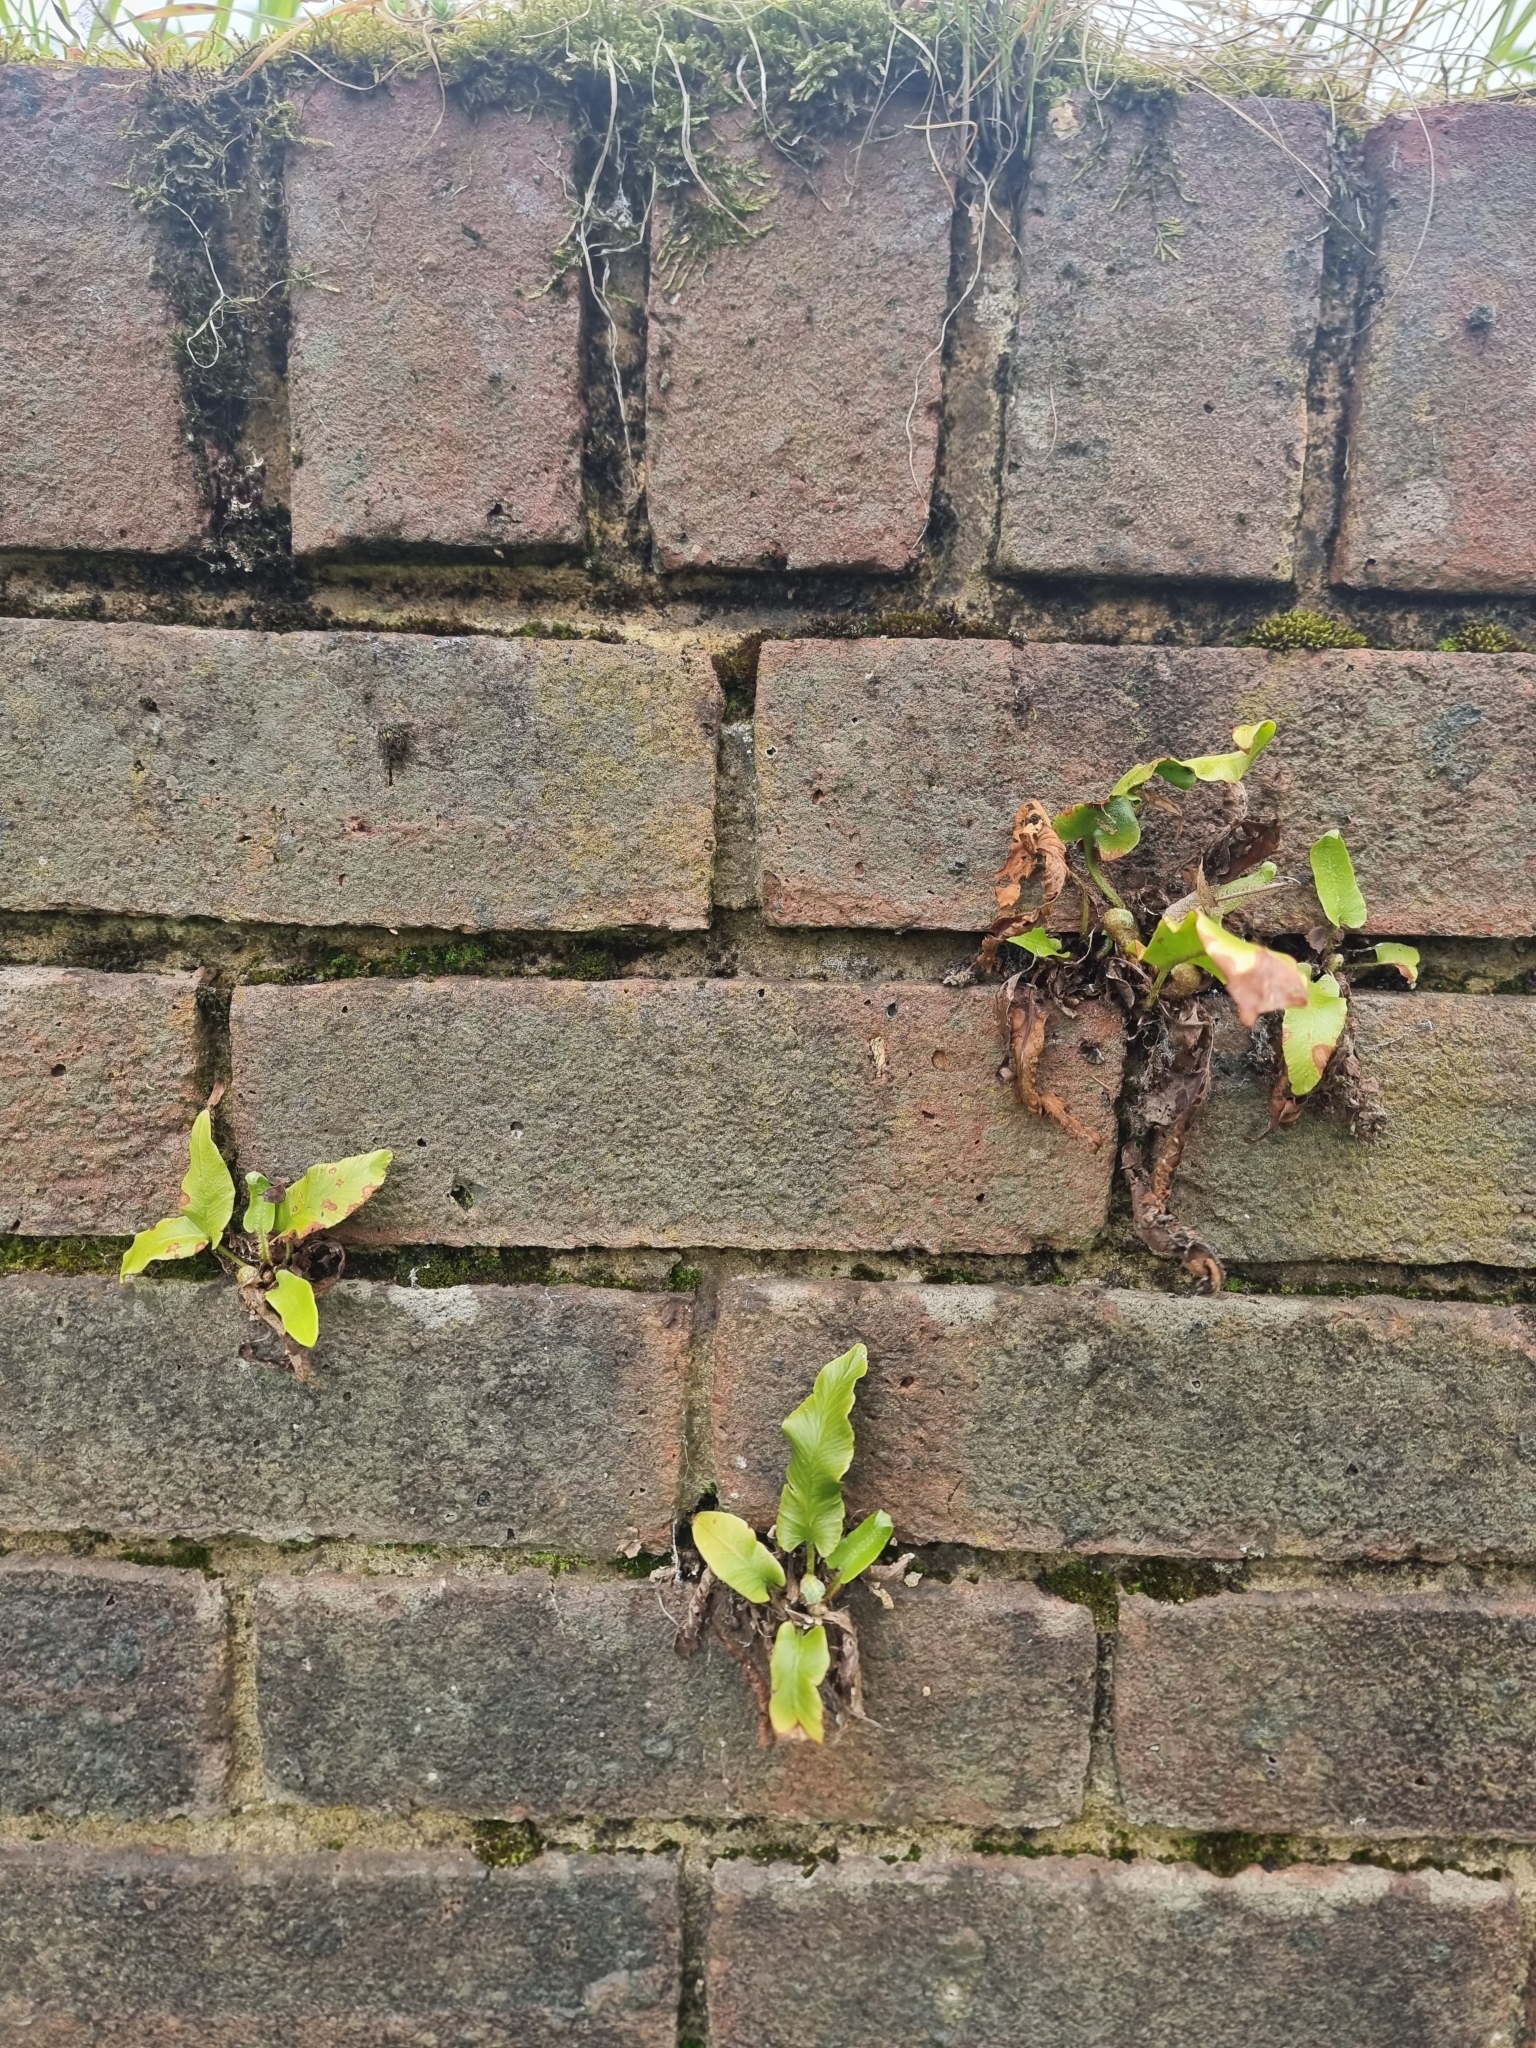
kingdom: Plantae
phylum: Tracheophyta
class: Polypodiopsida
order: Polypodiales
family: Aspleniaceae
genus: Asplenium
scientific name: Asplenium scolopendrium
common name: Hart's-tongue fern
